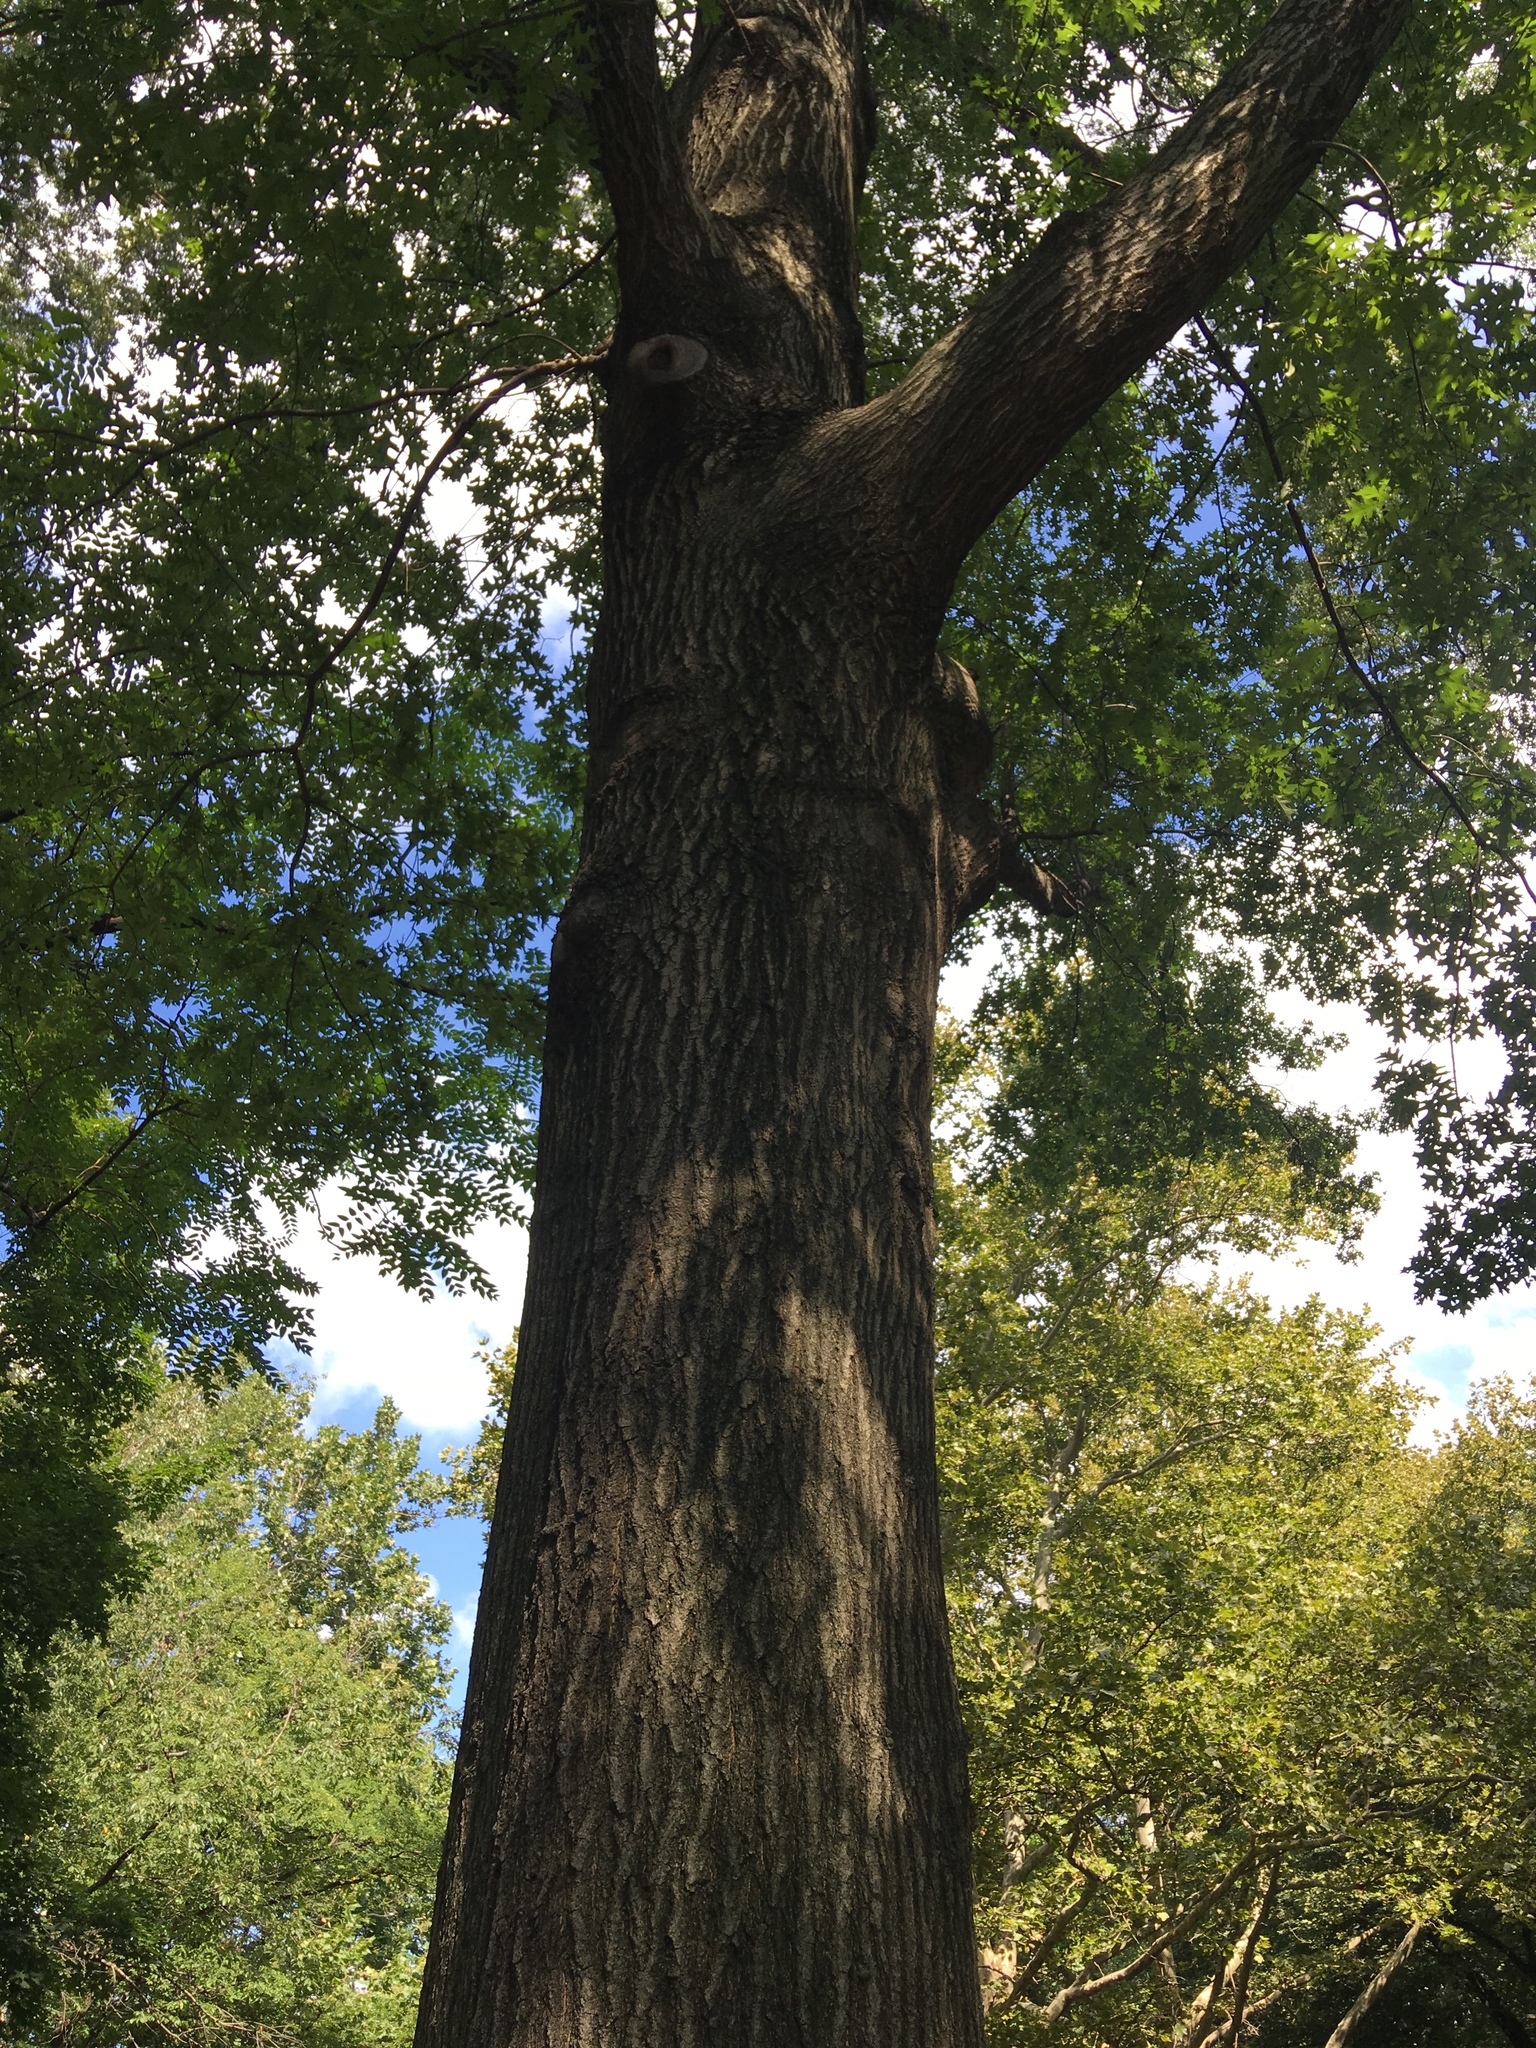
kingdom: Plantae
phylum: Tracheophyta
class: Magnoliopsida
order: Fagales
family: Fagaceae
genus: Quercus
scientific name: Quercus rubra
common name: Red oak
